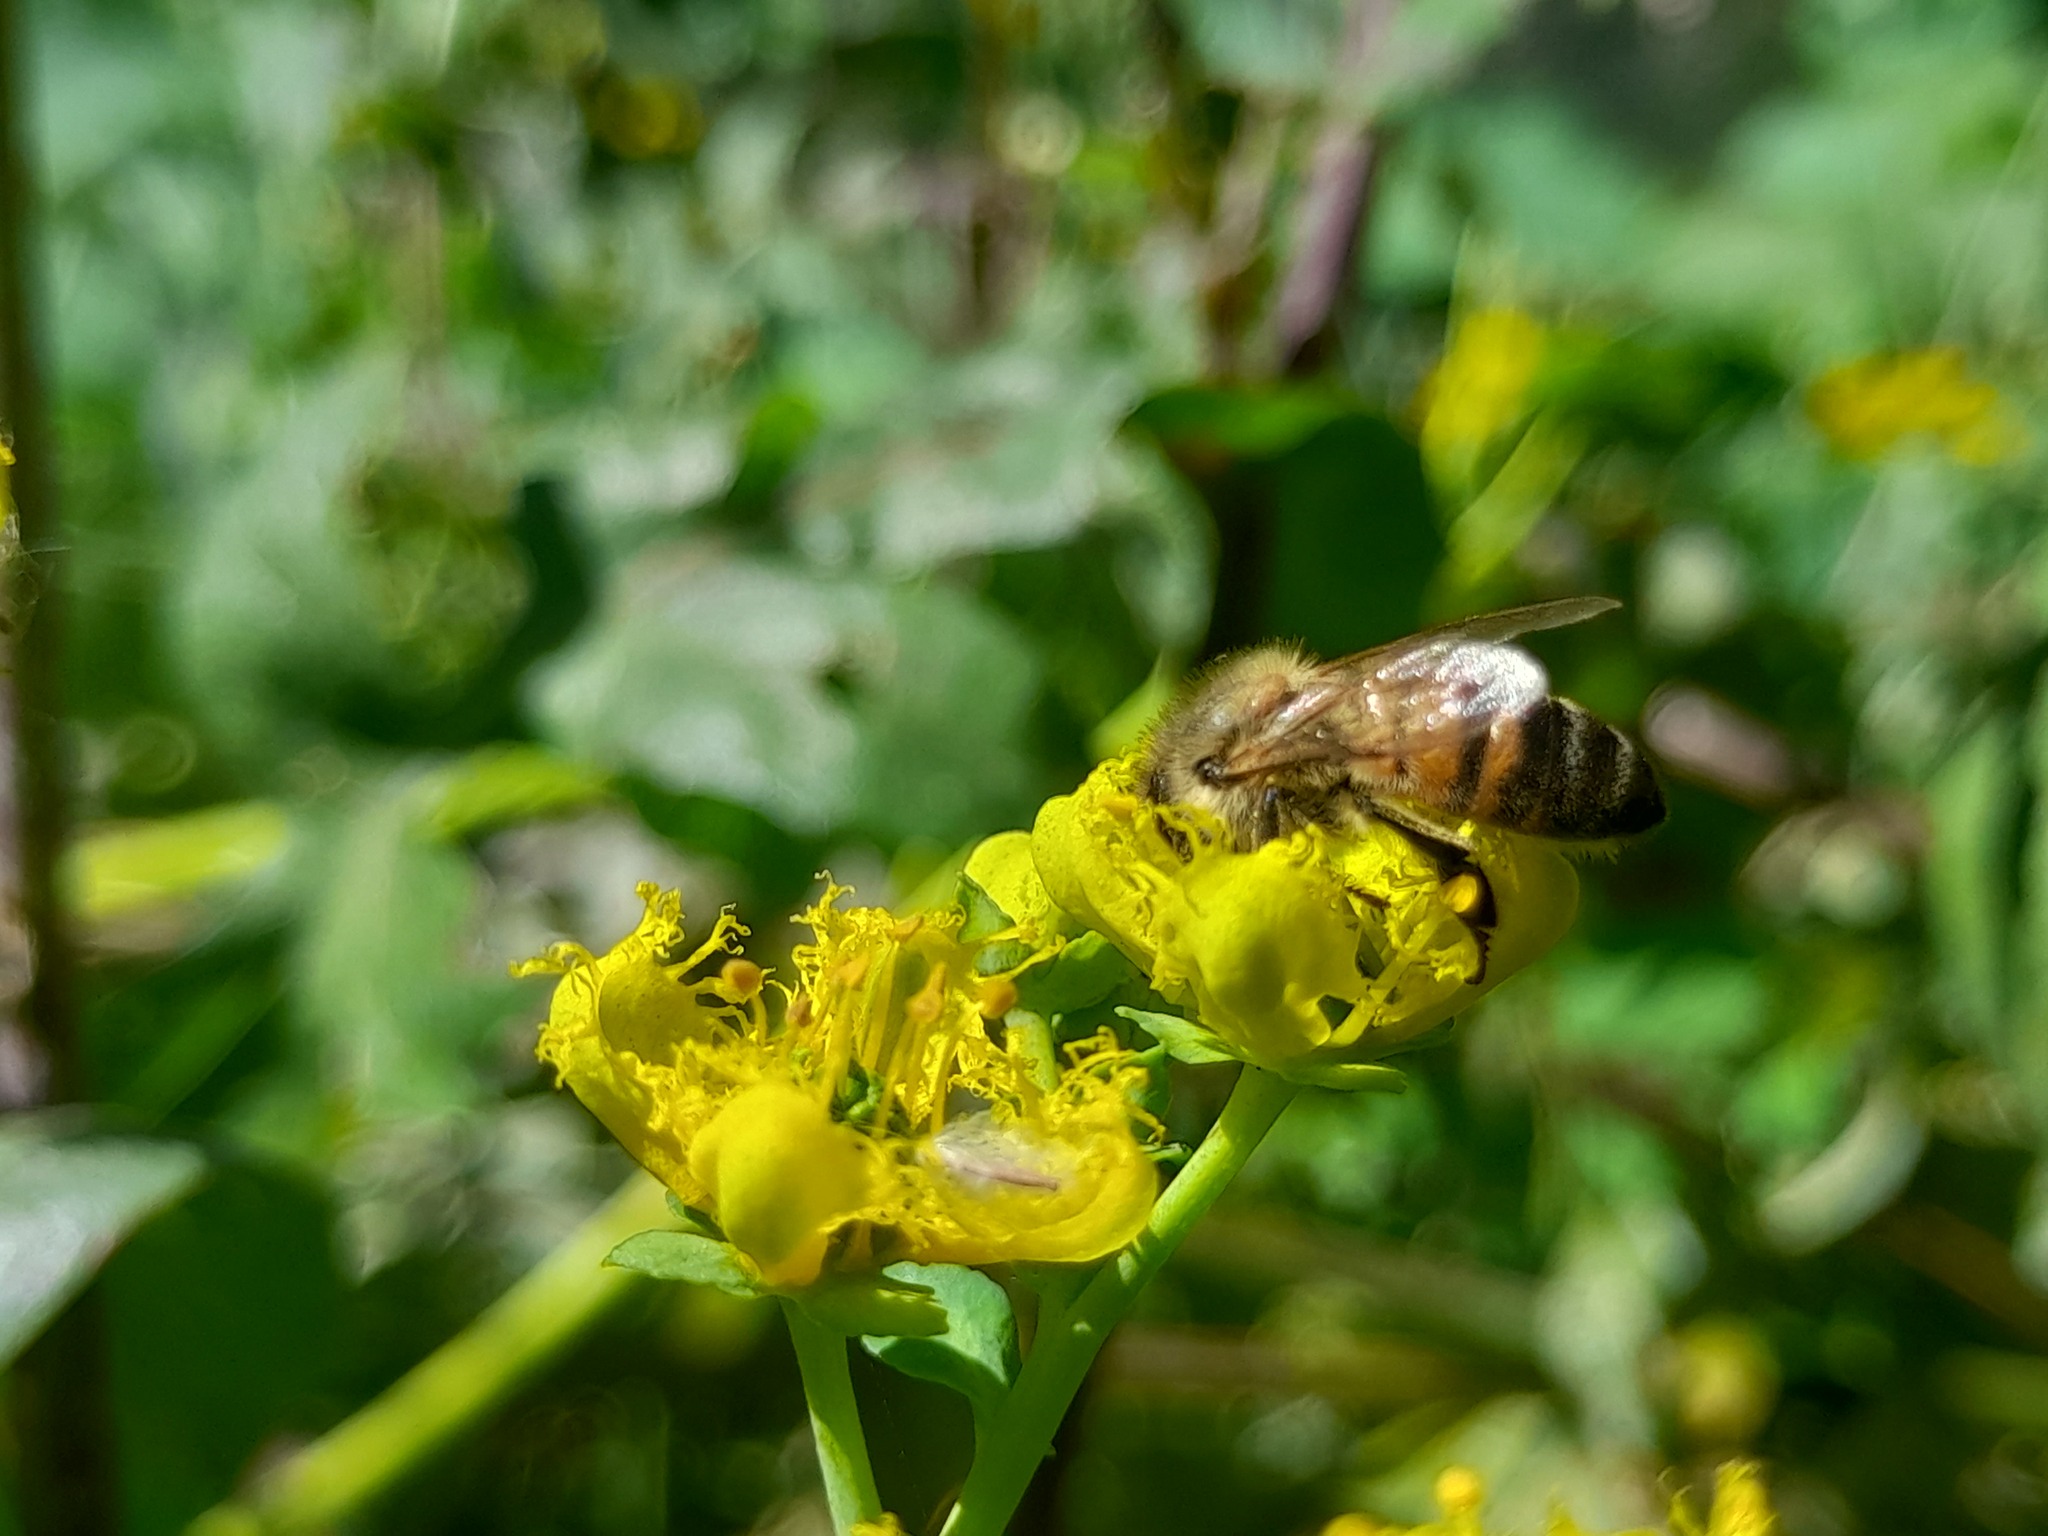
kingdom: Animalia
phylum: Arthropoda
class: Insecta
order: Hymenoptera
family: Apidae
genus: Apis
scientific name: Apis mellifera
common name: Honey bee
